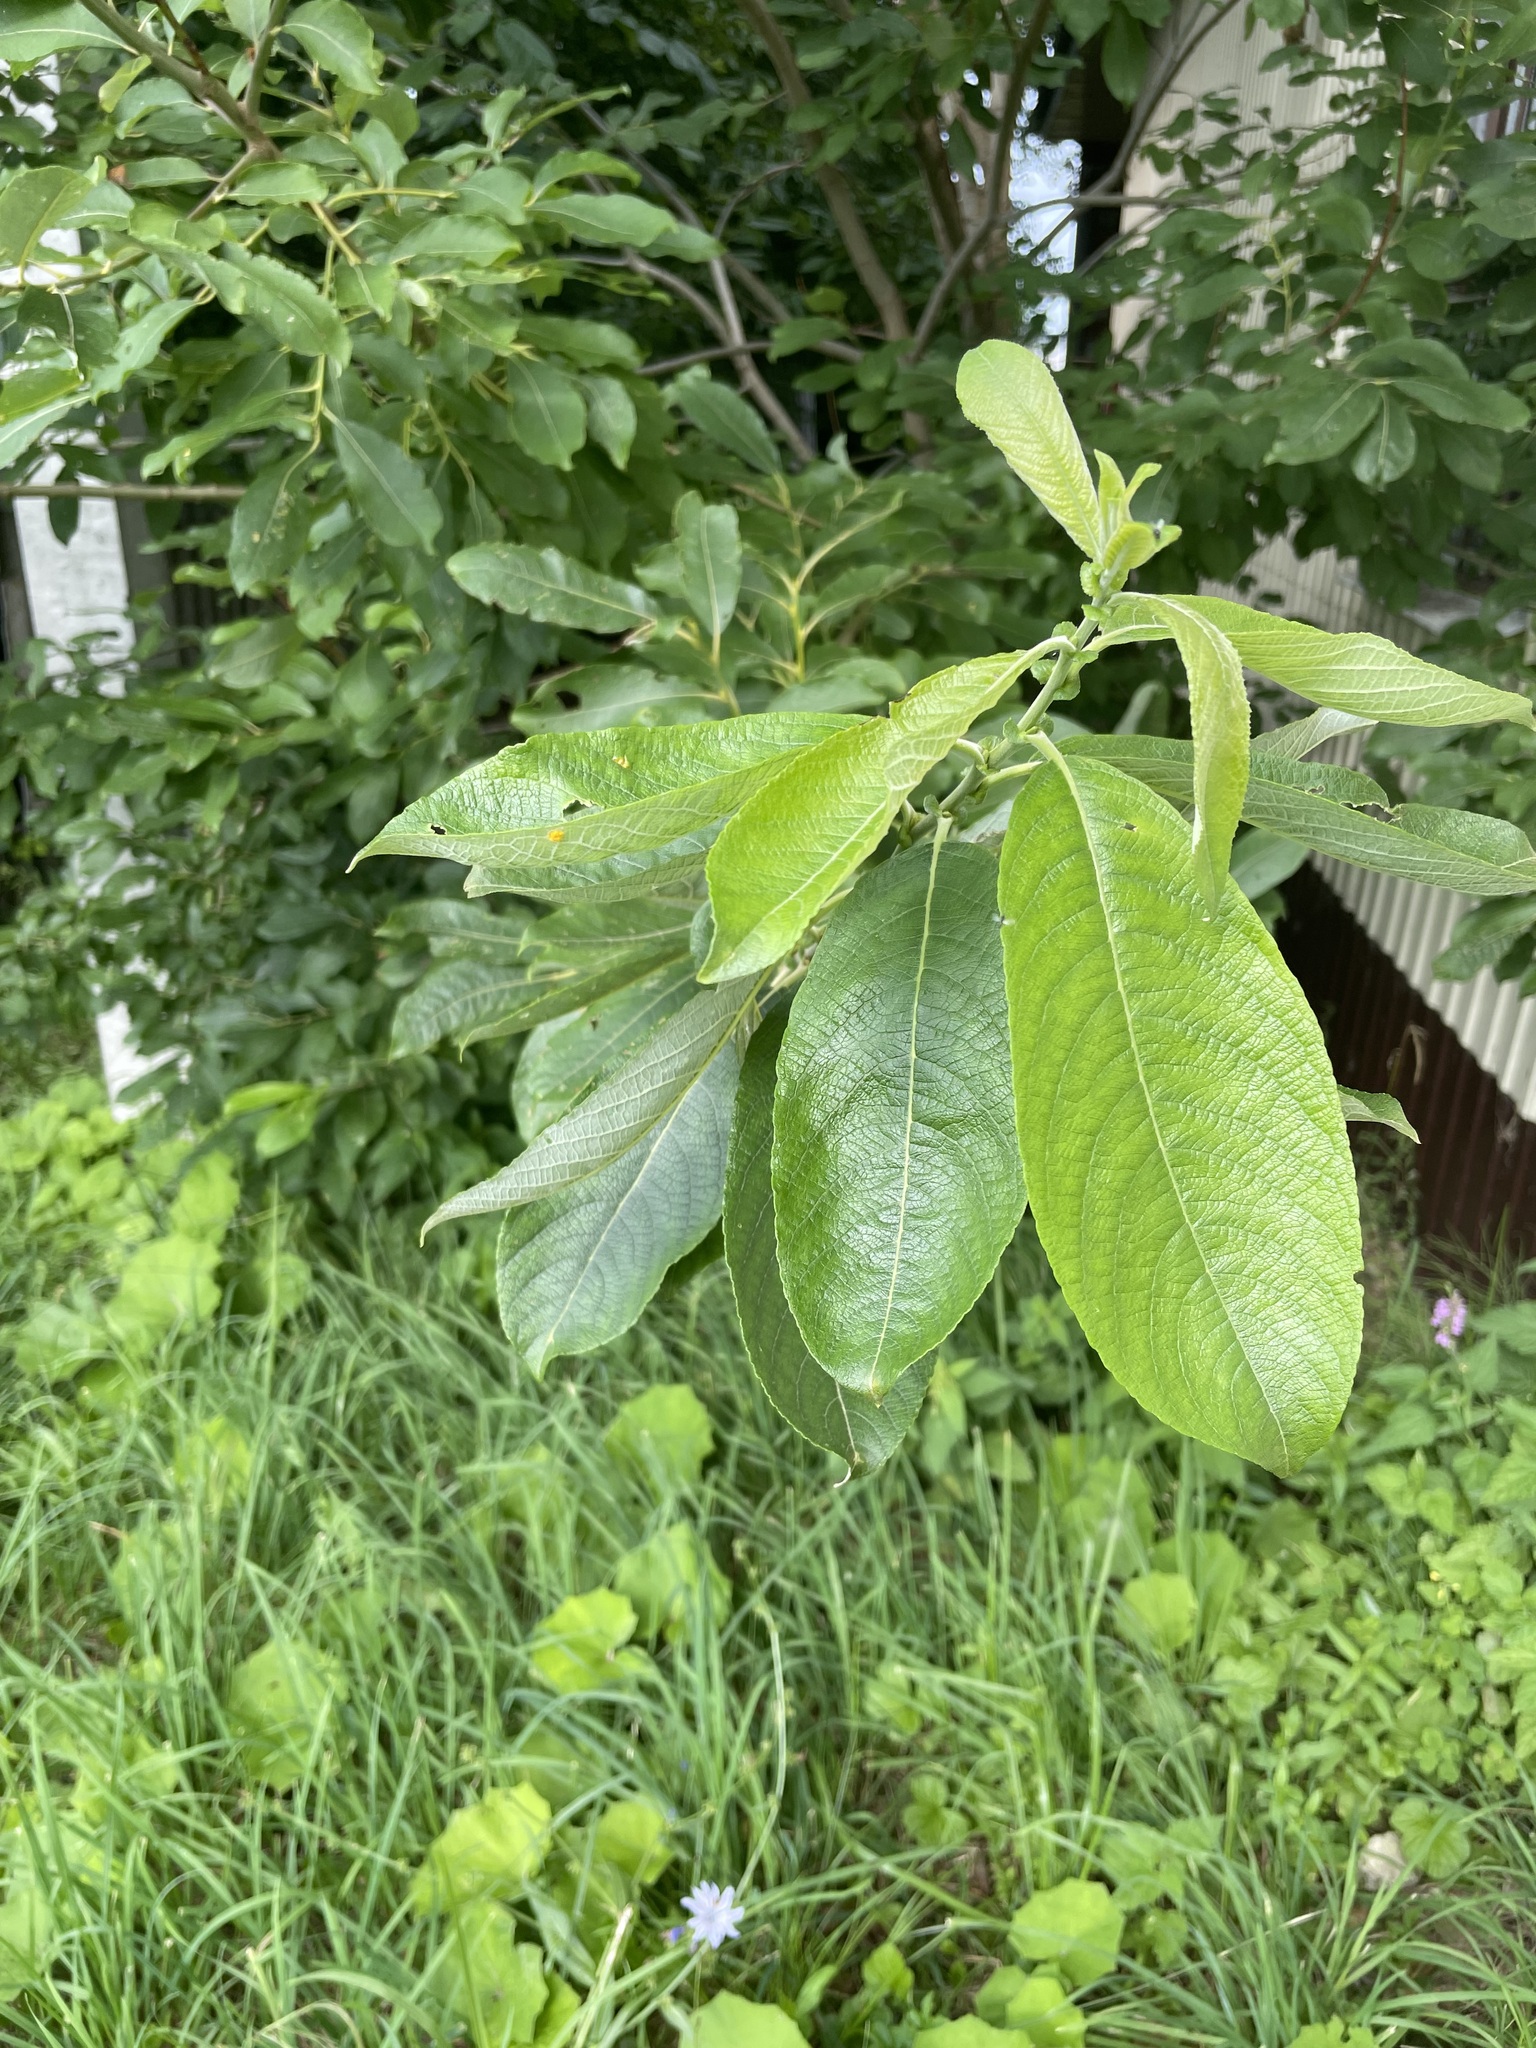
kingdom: Plantae
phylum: Tracheophyta
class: Magnoliopsida
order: Malpighiales
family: Salicaceae
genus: Salix
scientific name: Salix caprea
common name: Goat willow
